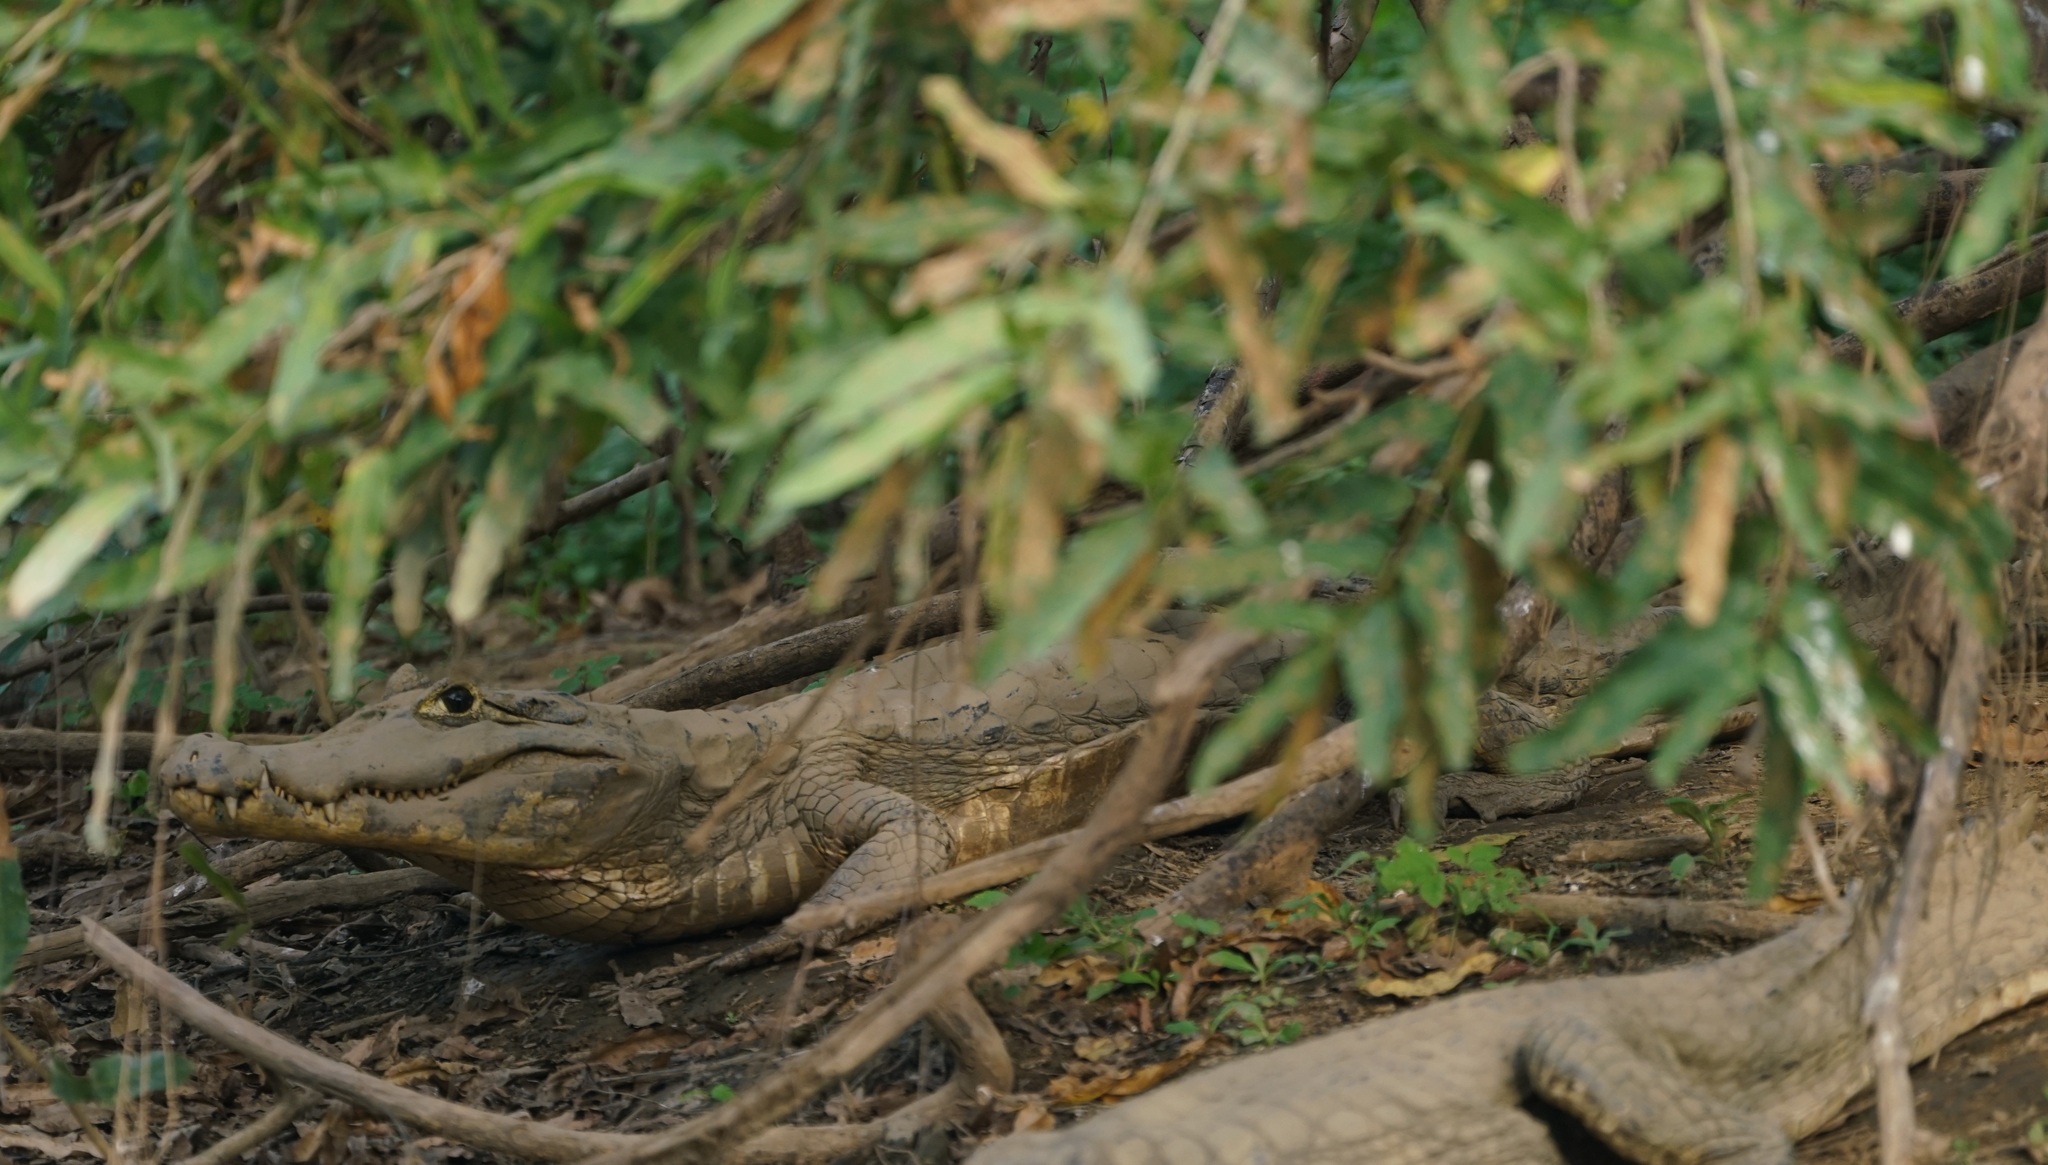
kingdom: Animalia
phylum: Chordata
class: Crocodylia
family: Alligatoridae
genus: Caiman
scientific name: Caiman yacare
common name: Yacare caiman
